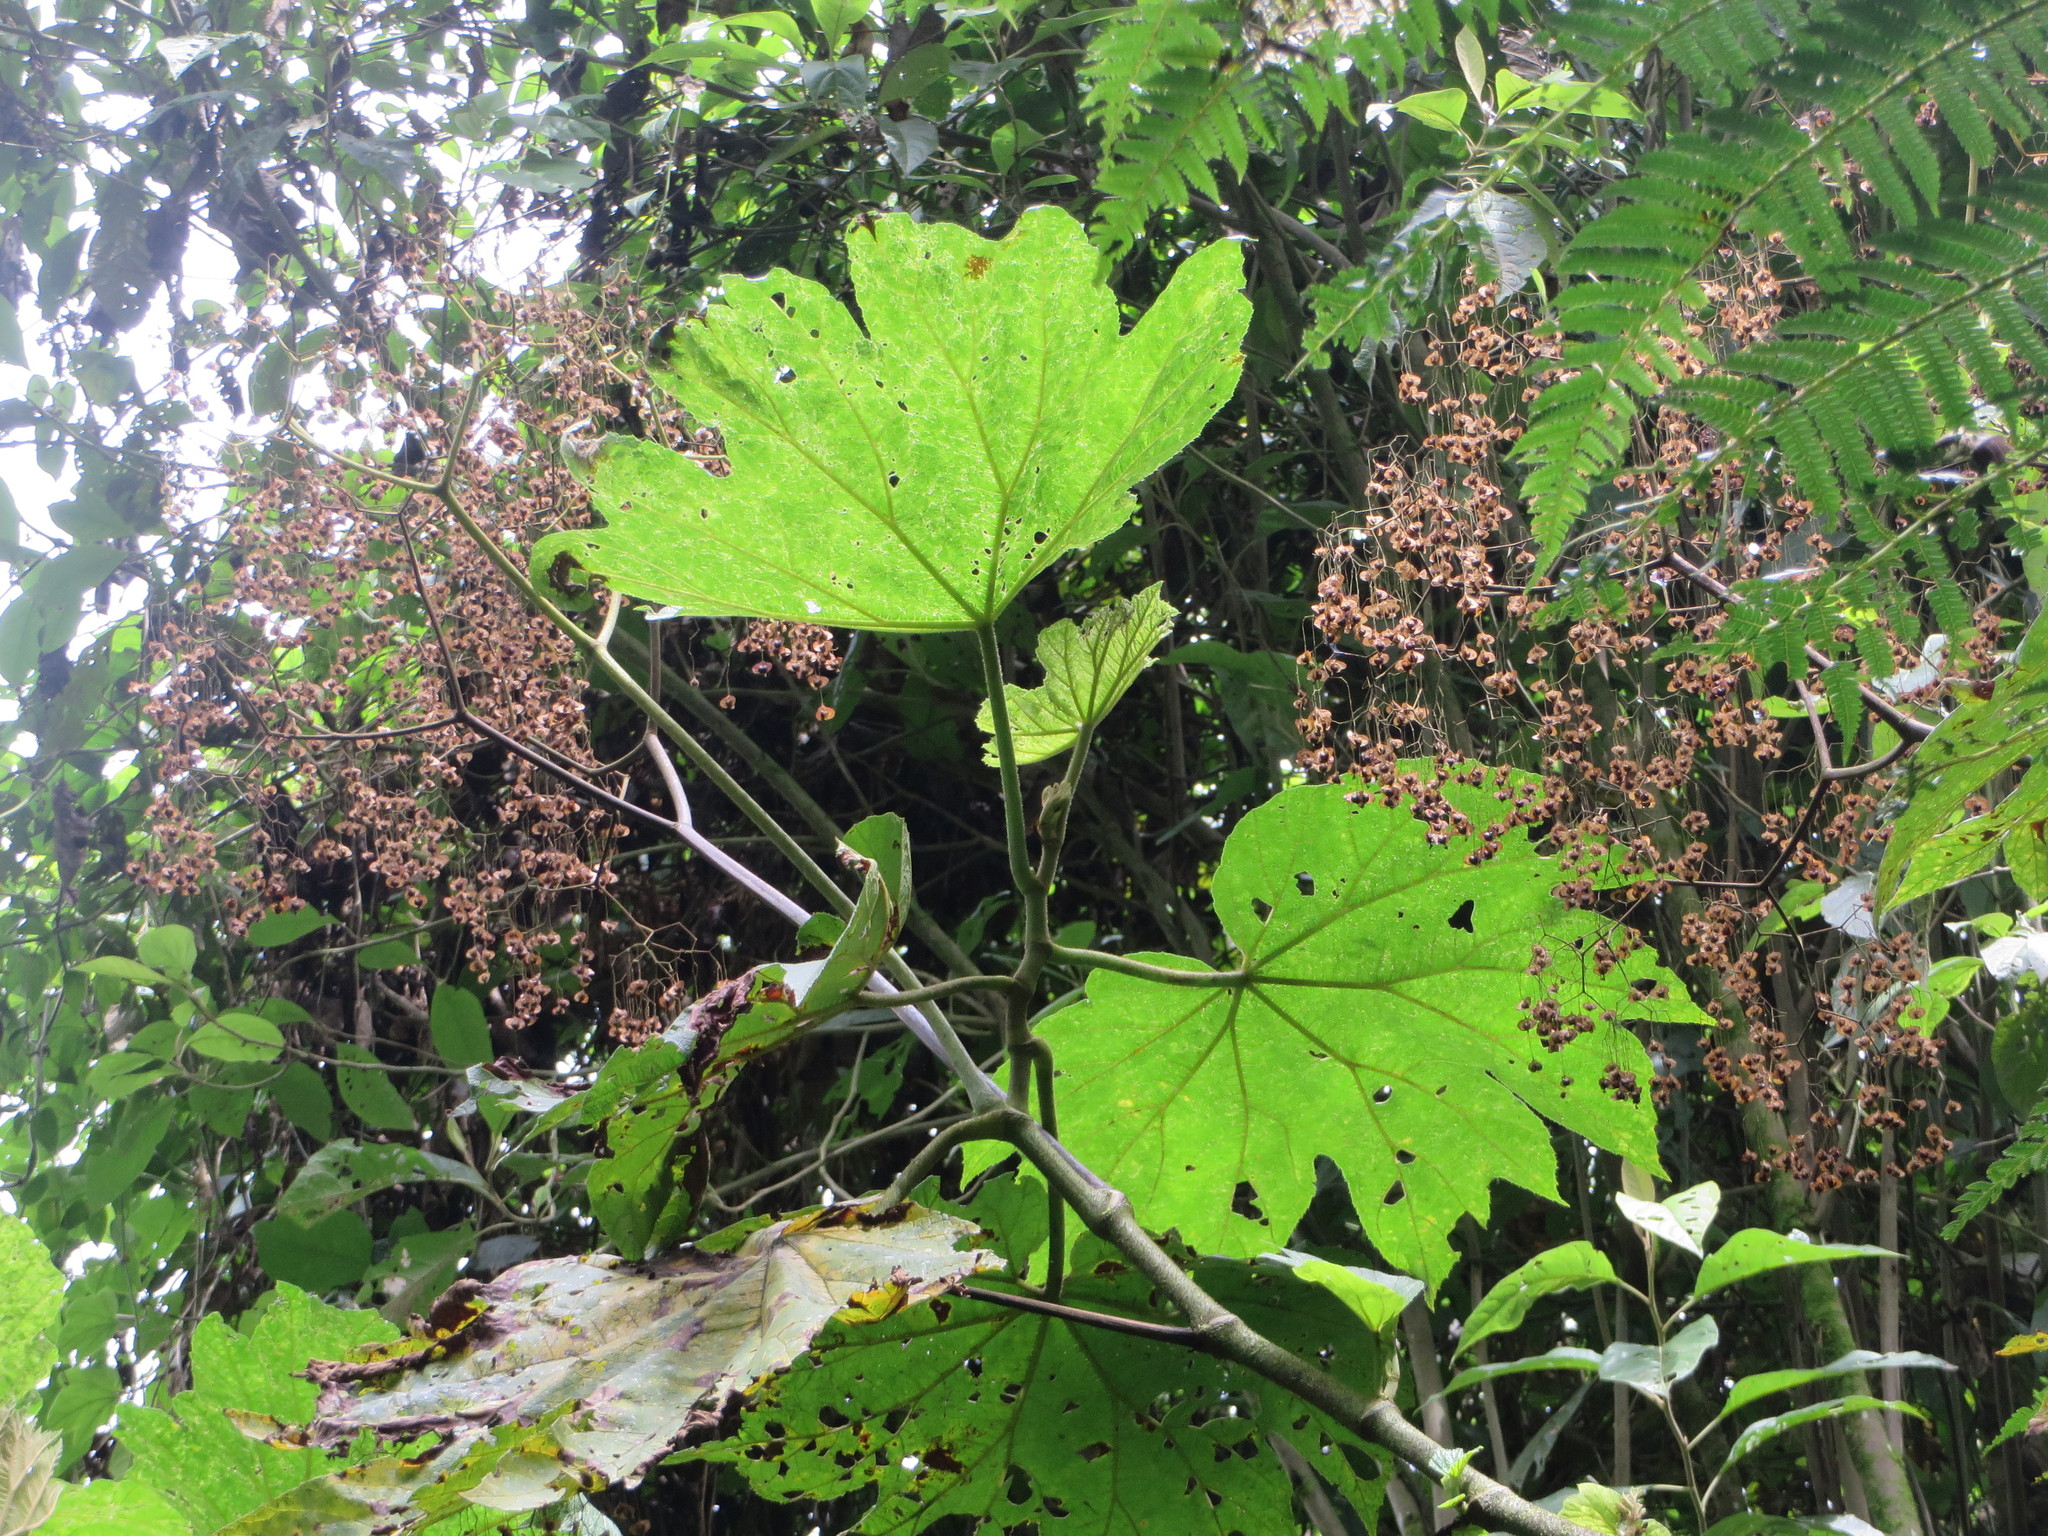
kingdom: Plantae
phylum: Tracheophyta
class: Magnoliopsida
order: Cucurbitales
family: Begoniaceae
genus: Begonia
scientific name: Begonia parviflora
